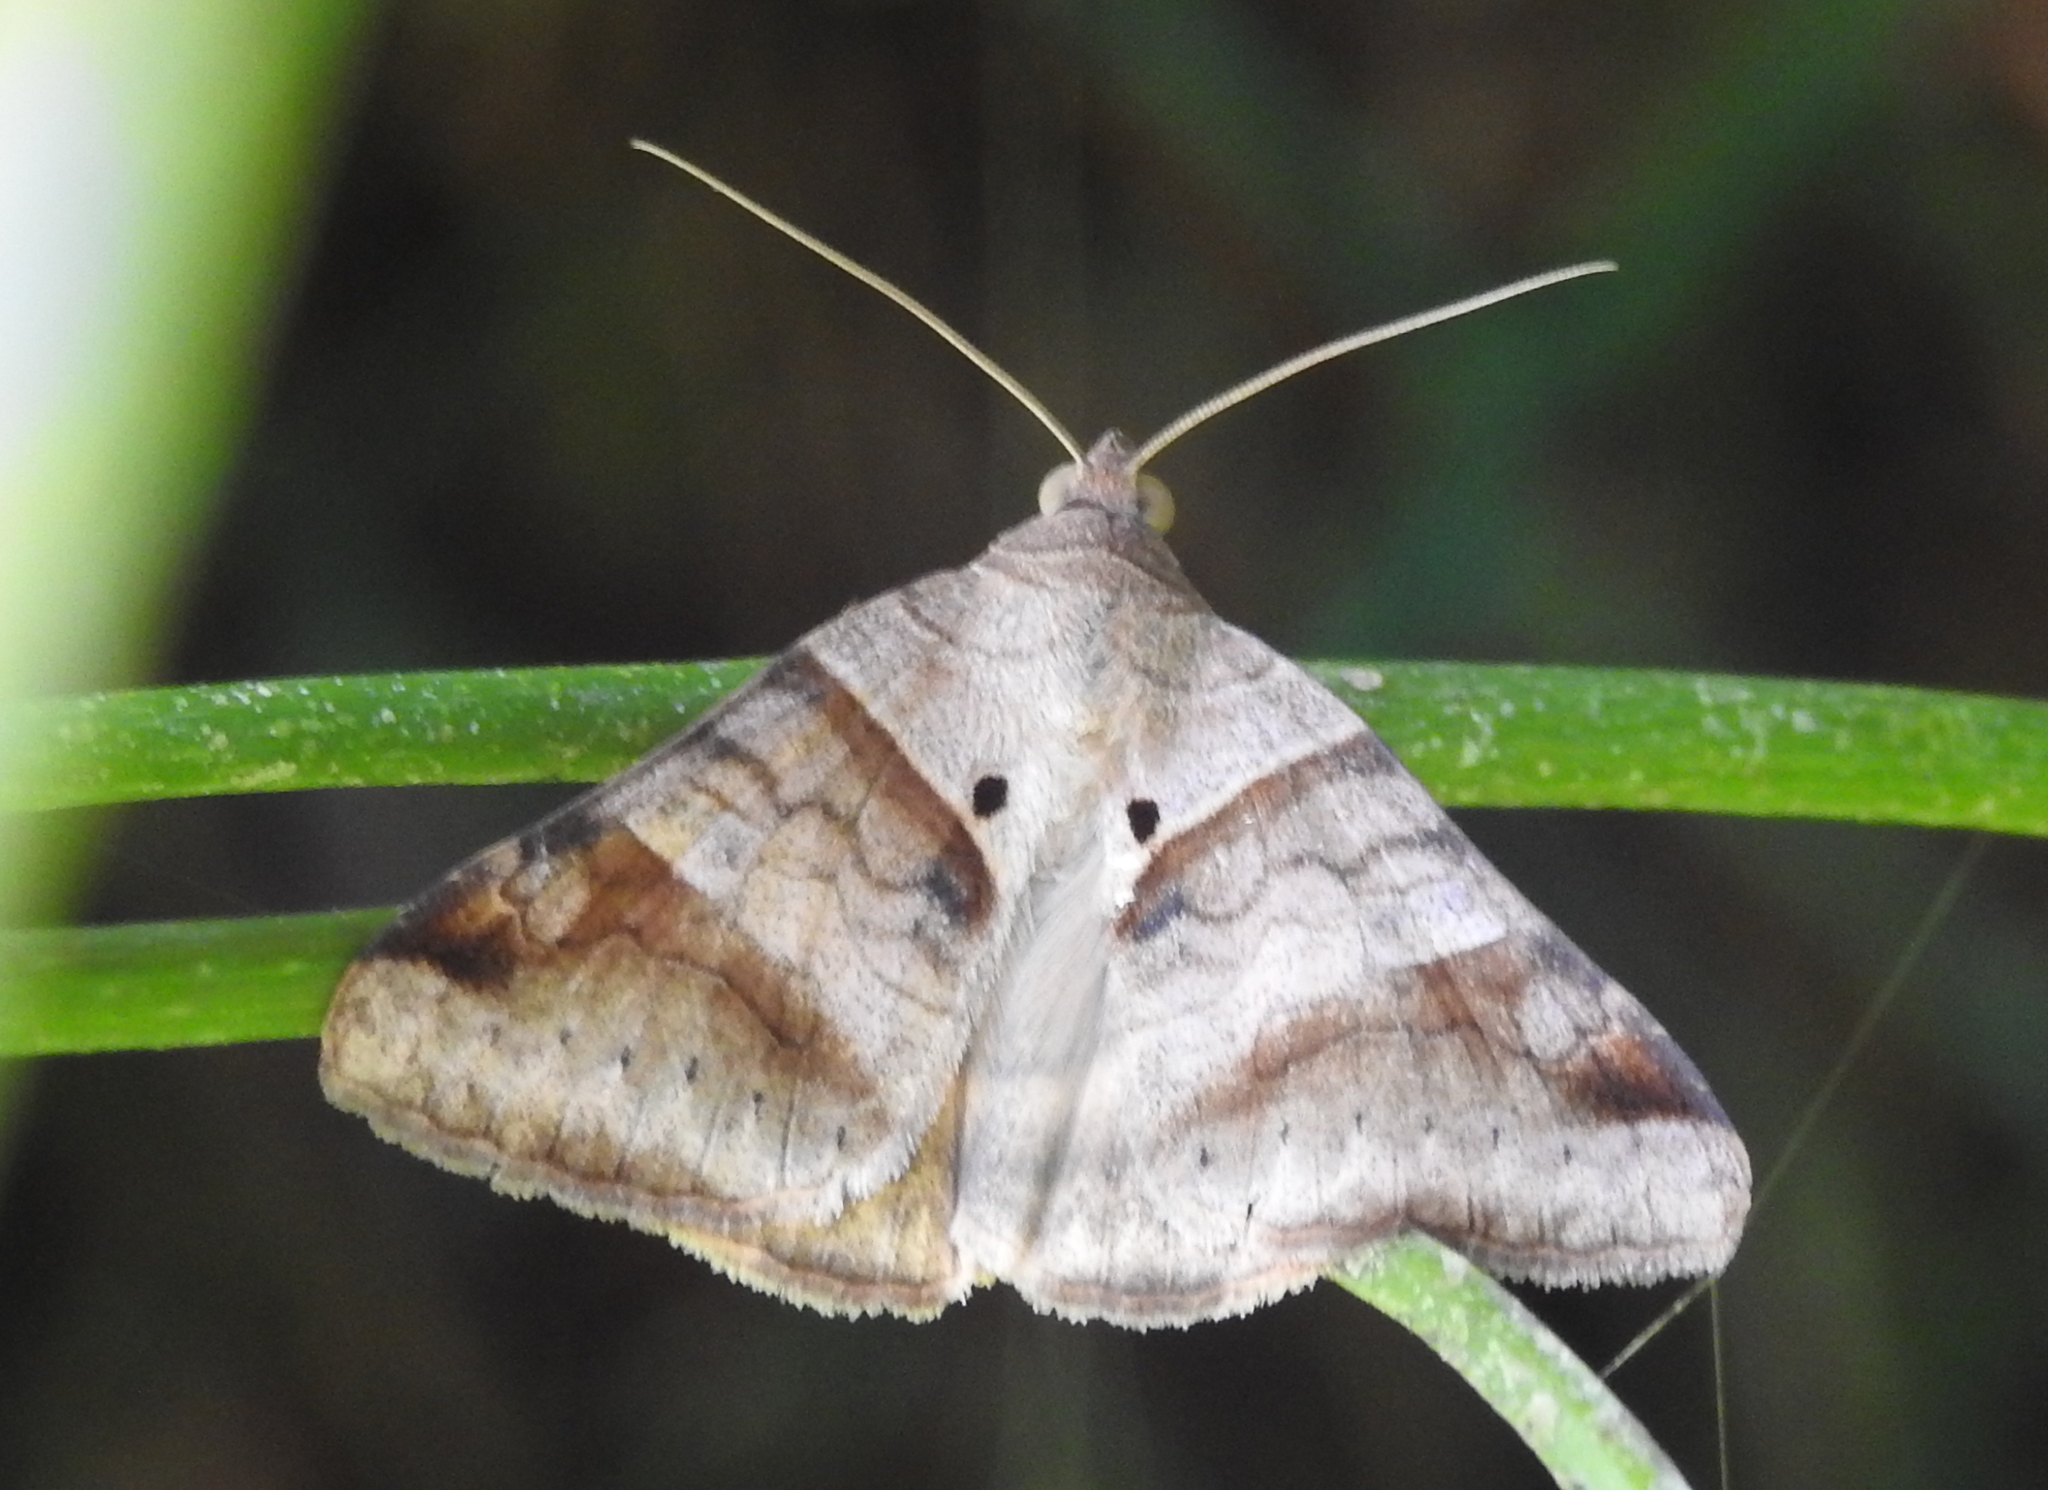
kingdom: Animalia
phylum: Arthropoda
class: Insecta
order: Lepidoptera
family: Erebidae
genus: Mocis
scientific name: Mocis undata
